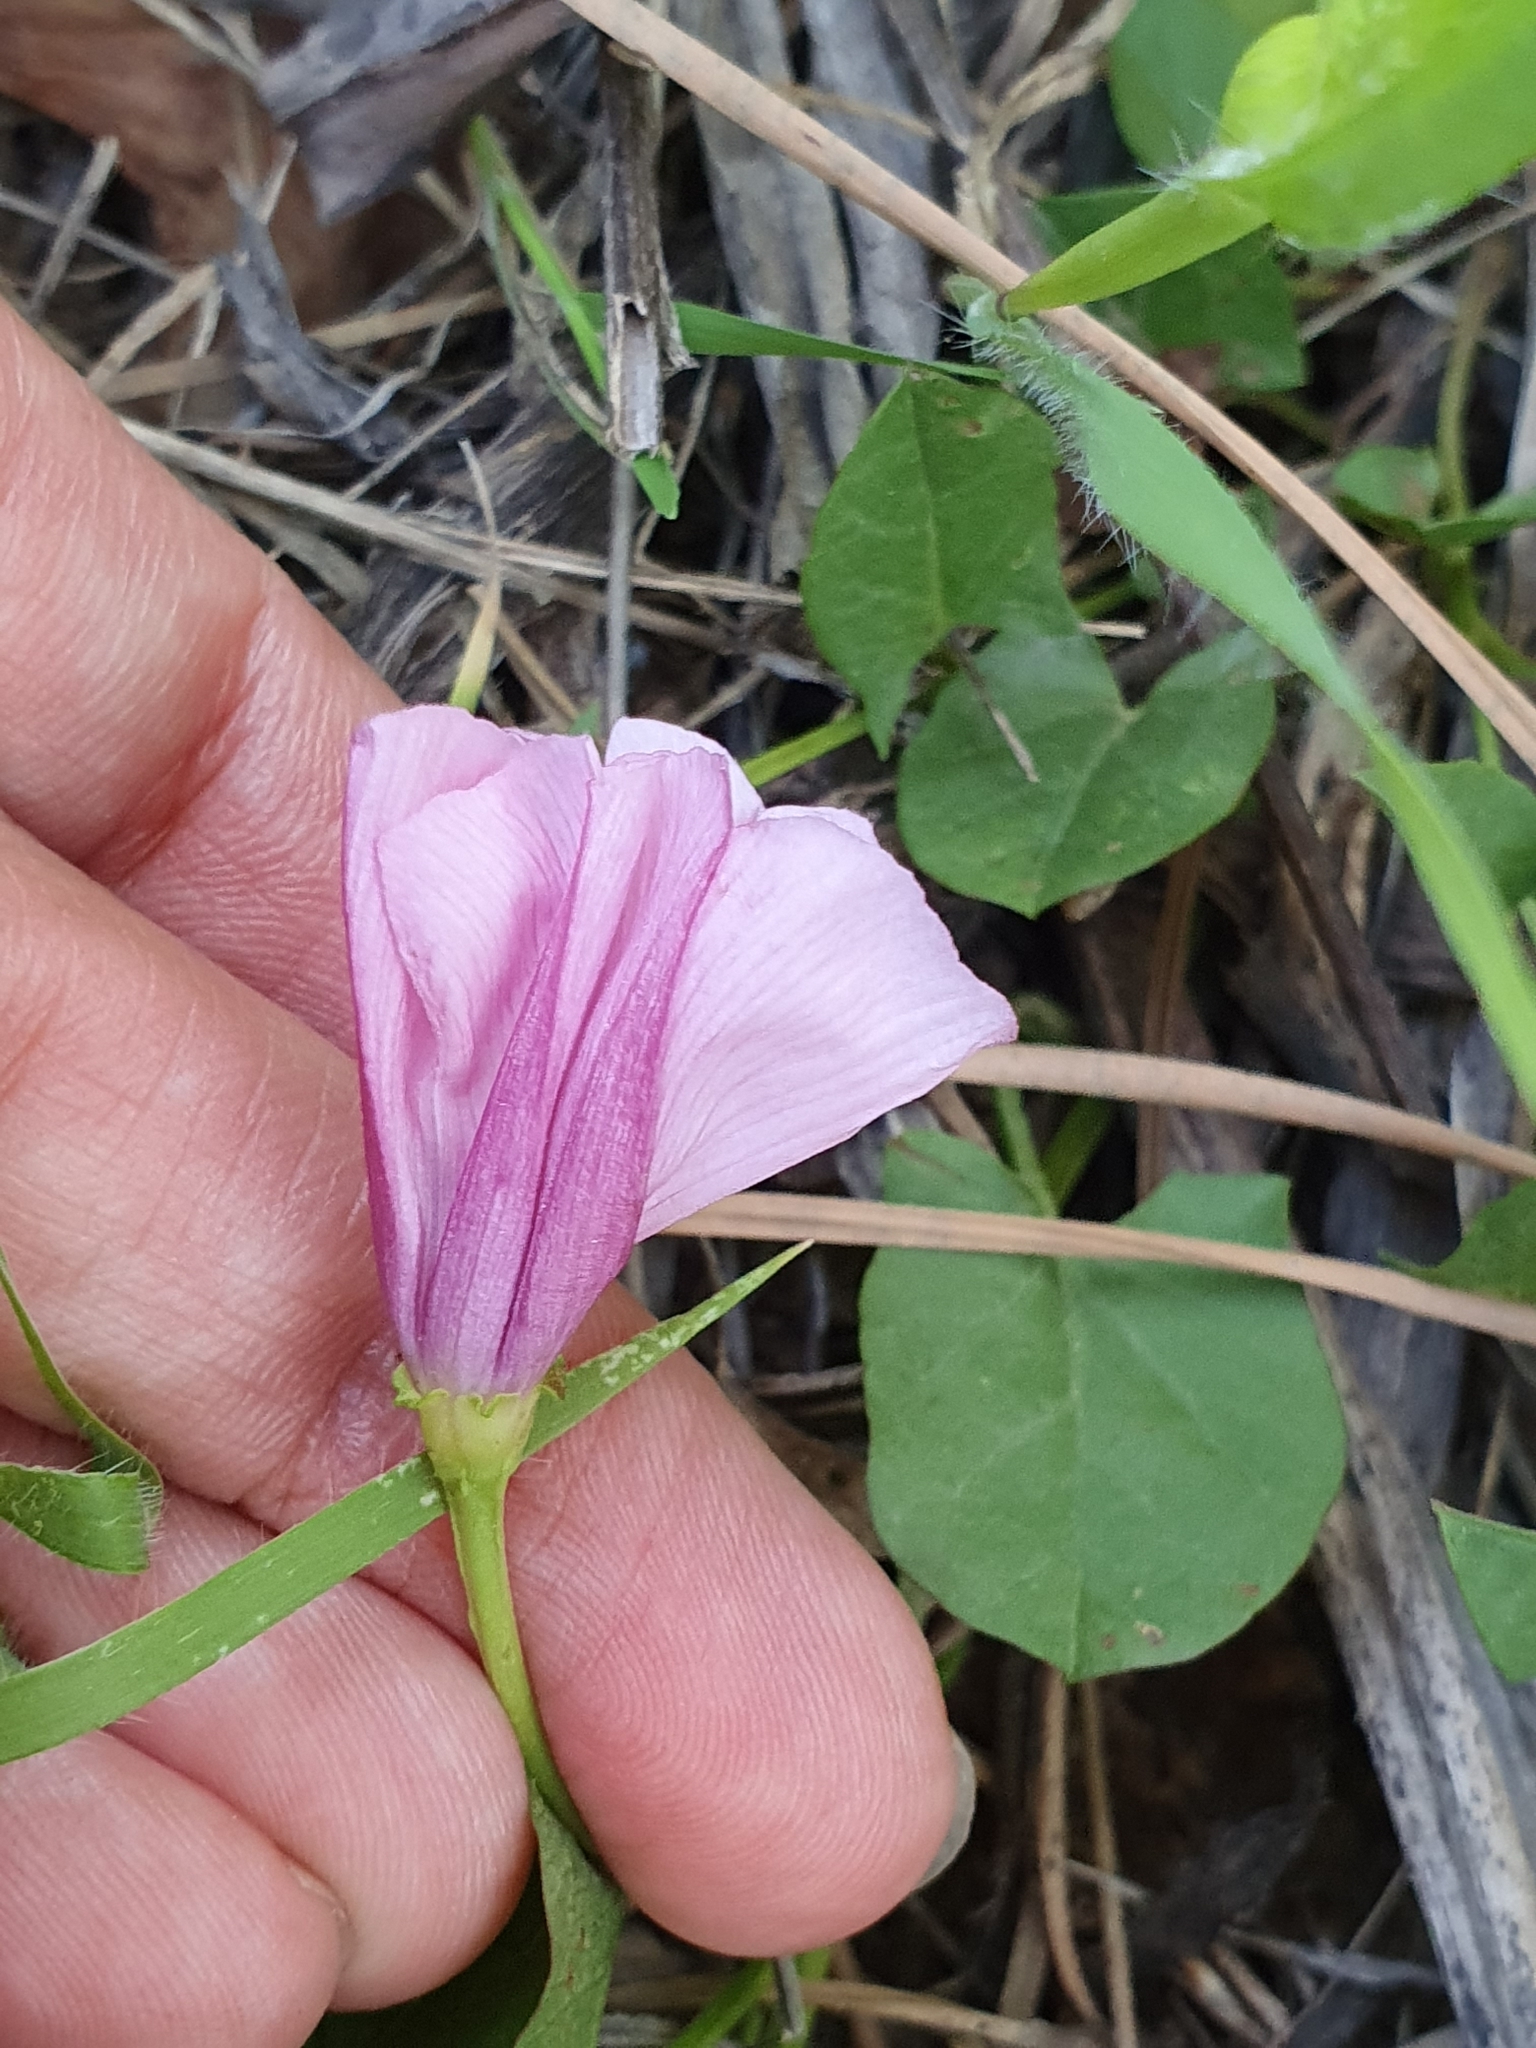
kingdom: Plantae
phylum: Tracheophyta
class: Magnoliopsida
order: Solanales
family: Convolvulaceae
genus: Convolvulus
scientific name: Convolvulus durandoi
